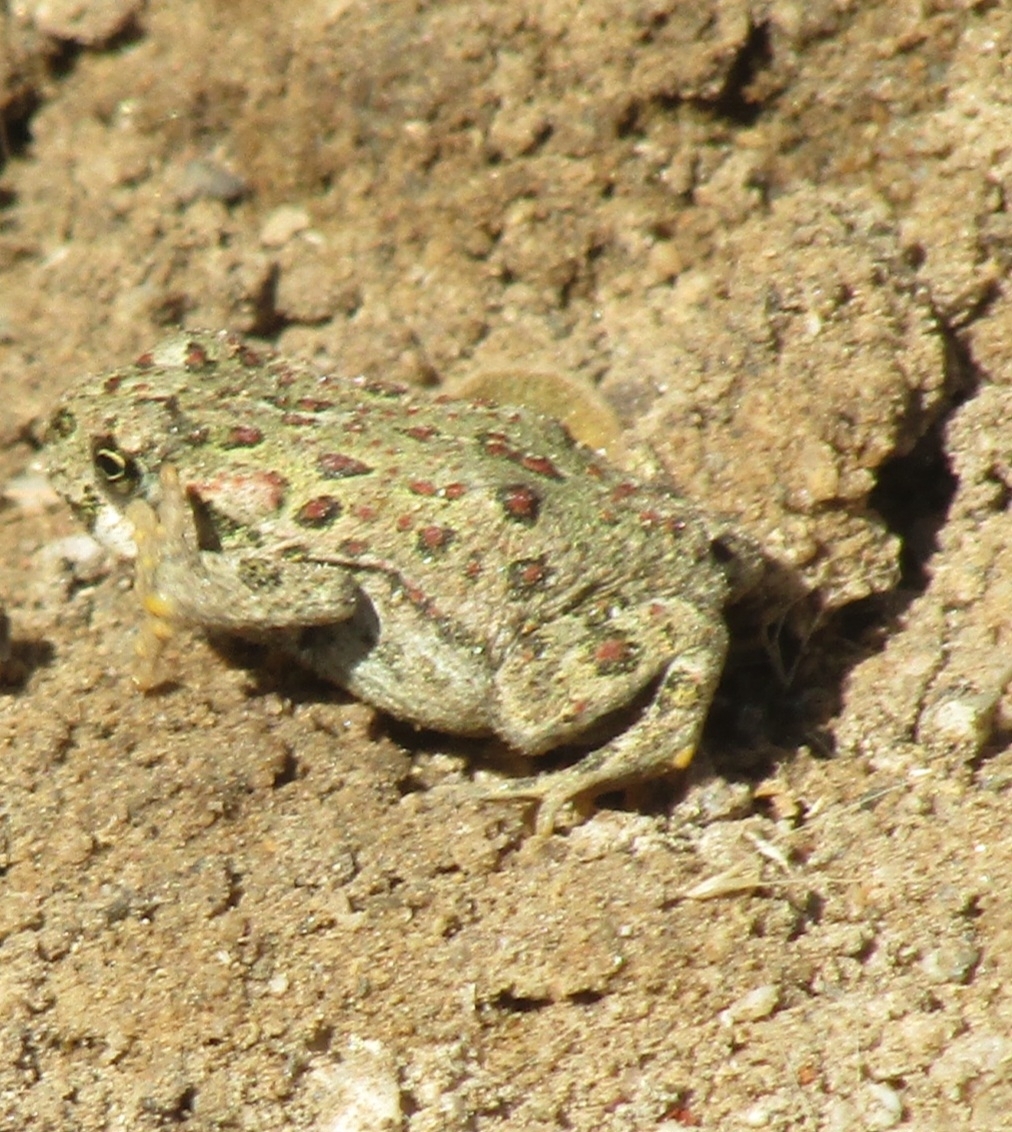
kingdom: Animalia
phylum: Chordata
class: Amphibia
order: Anura
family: Bufonidae
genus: Anaxyrus
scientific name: Anaxyrus boreas
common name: Western toad
